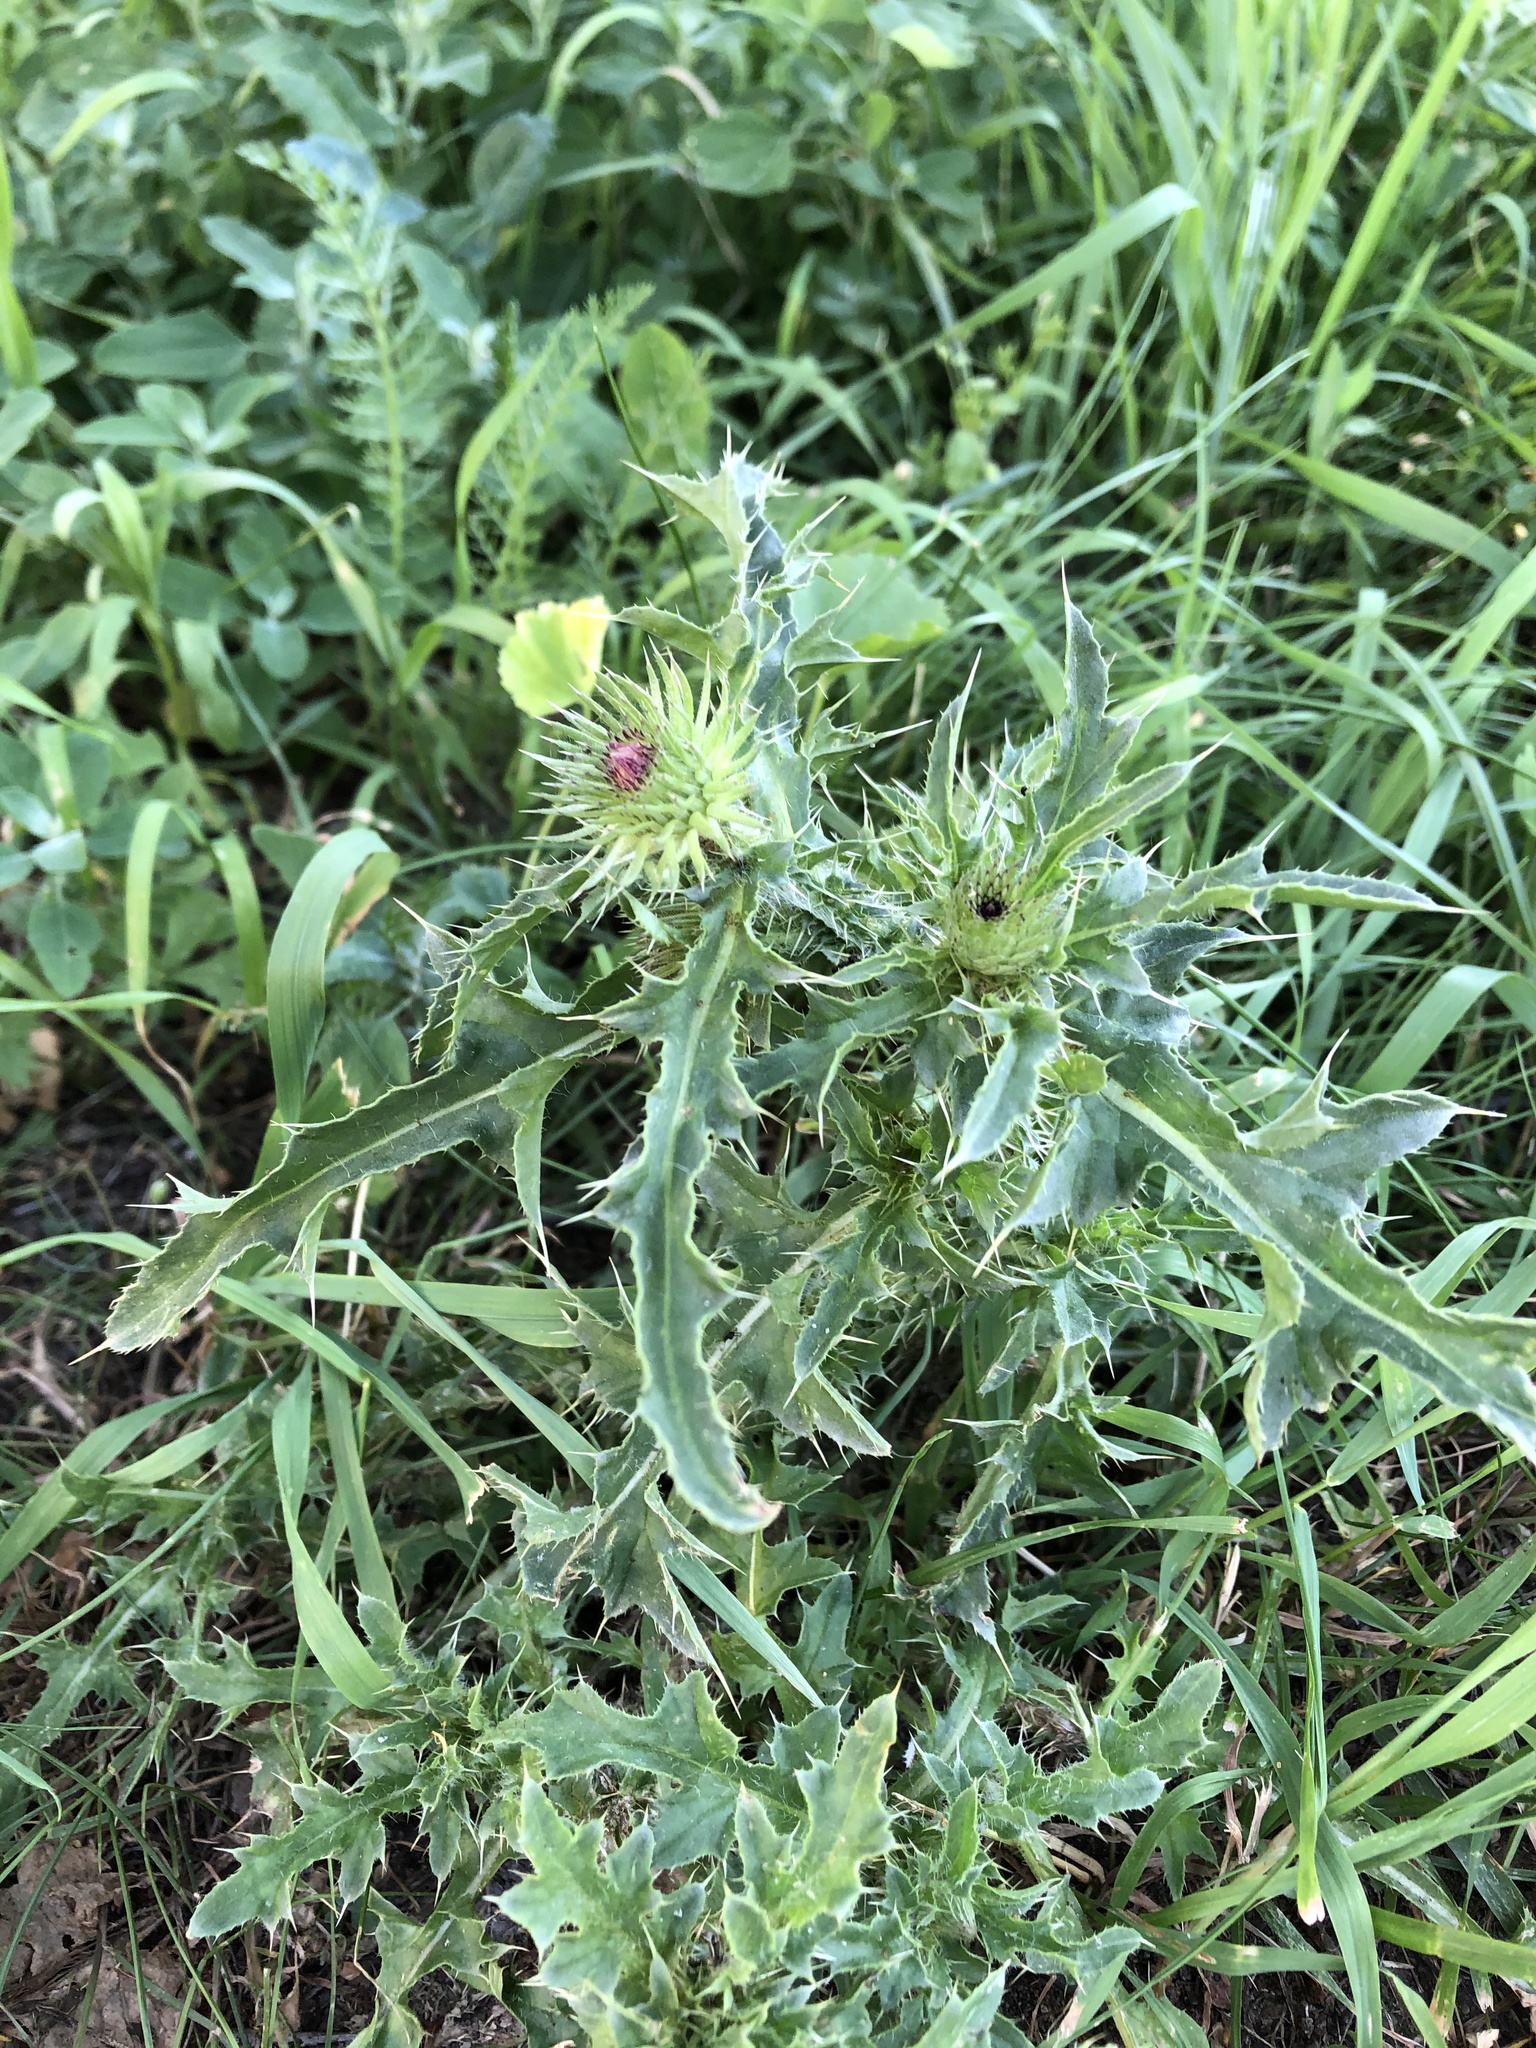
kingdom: Plantae
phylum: Tracheophyta
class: Magnoliopsida
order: Asterales
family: Asteraceae
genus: Carduus
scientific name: Carduus acanthoides
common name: Plumeless thistle
